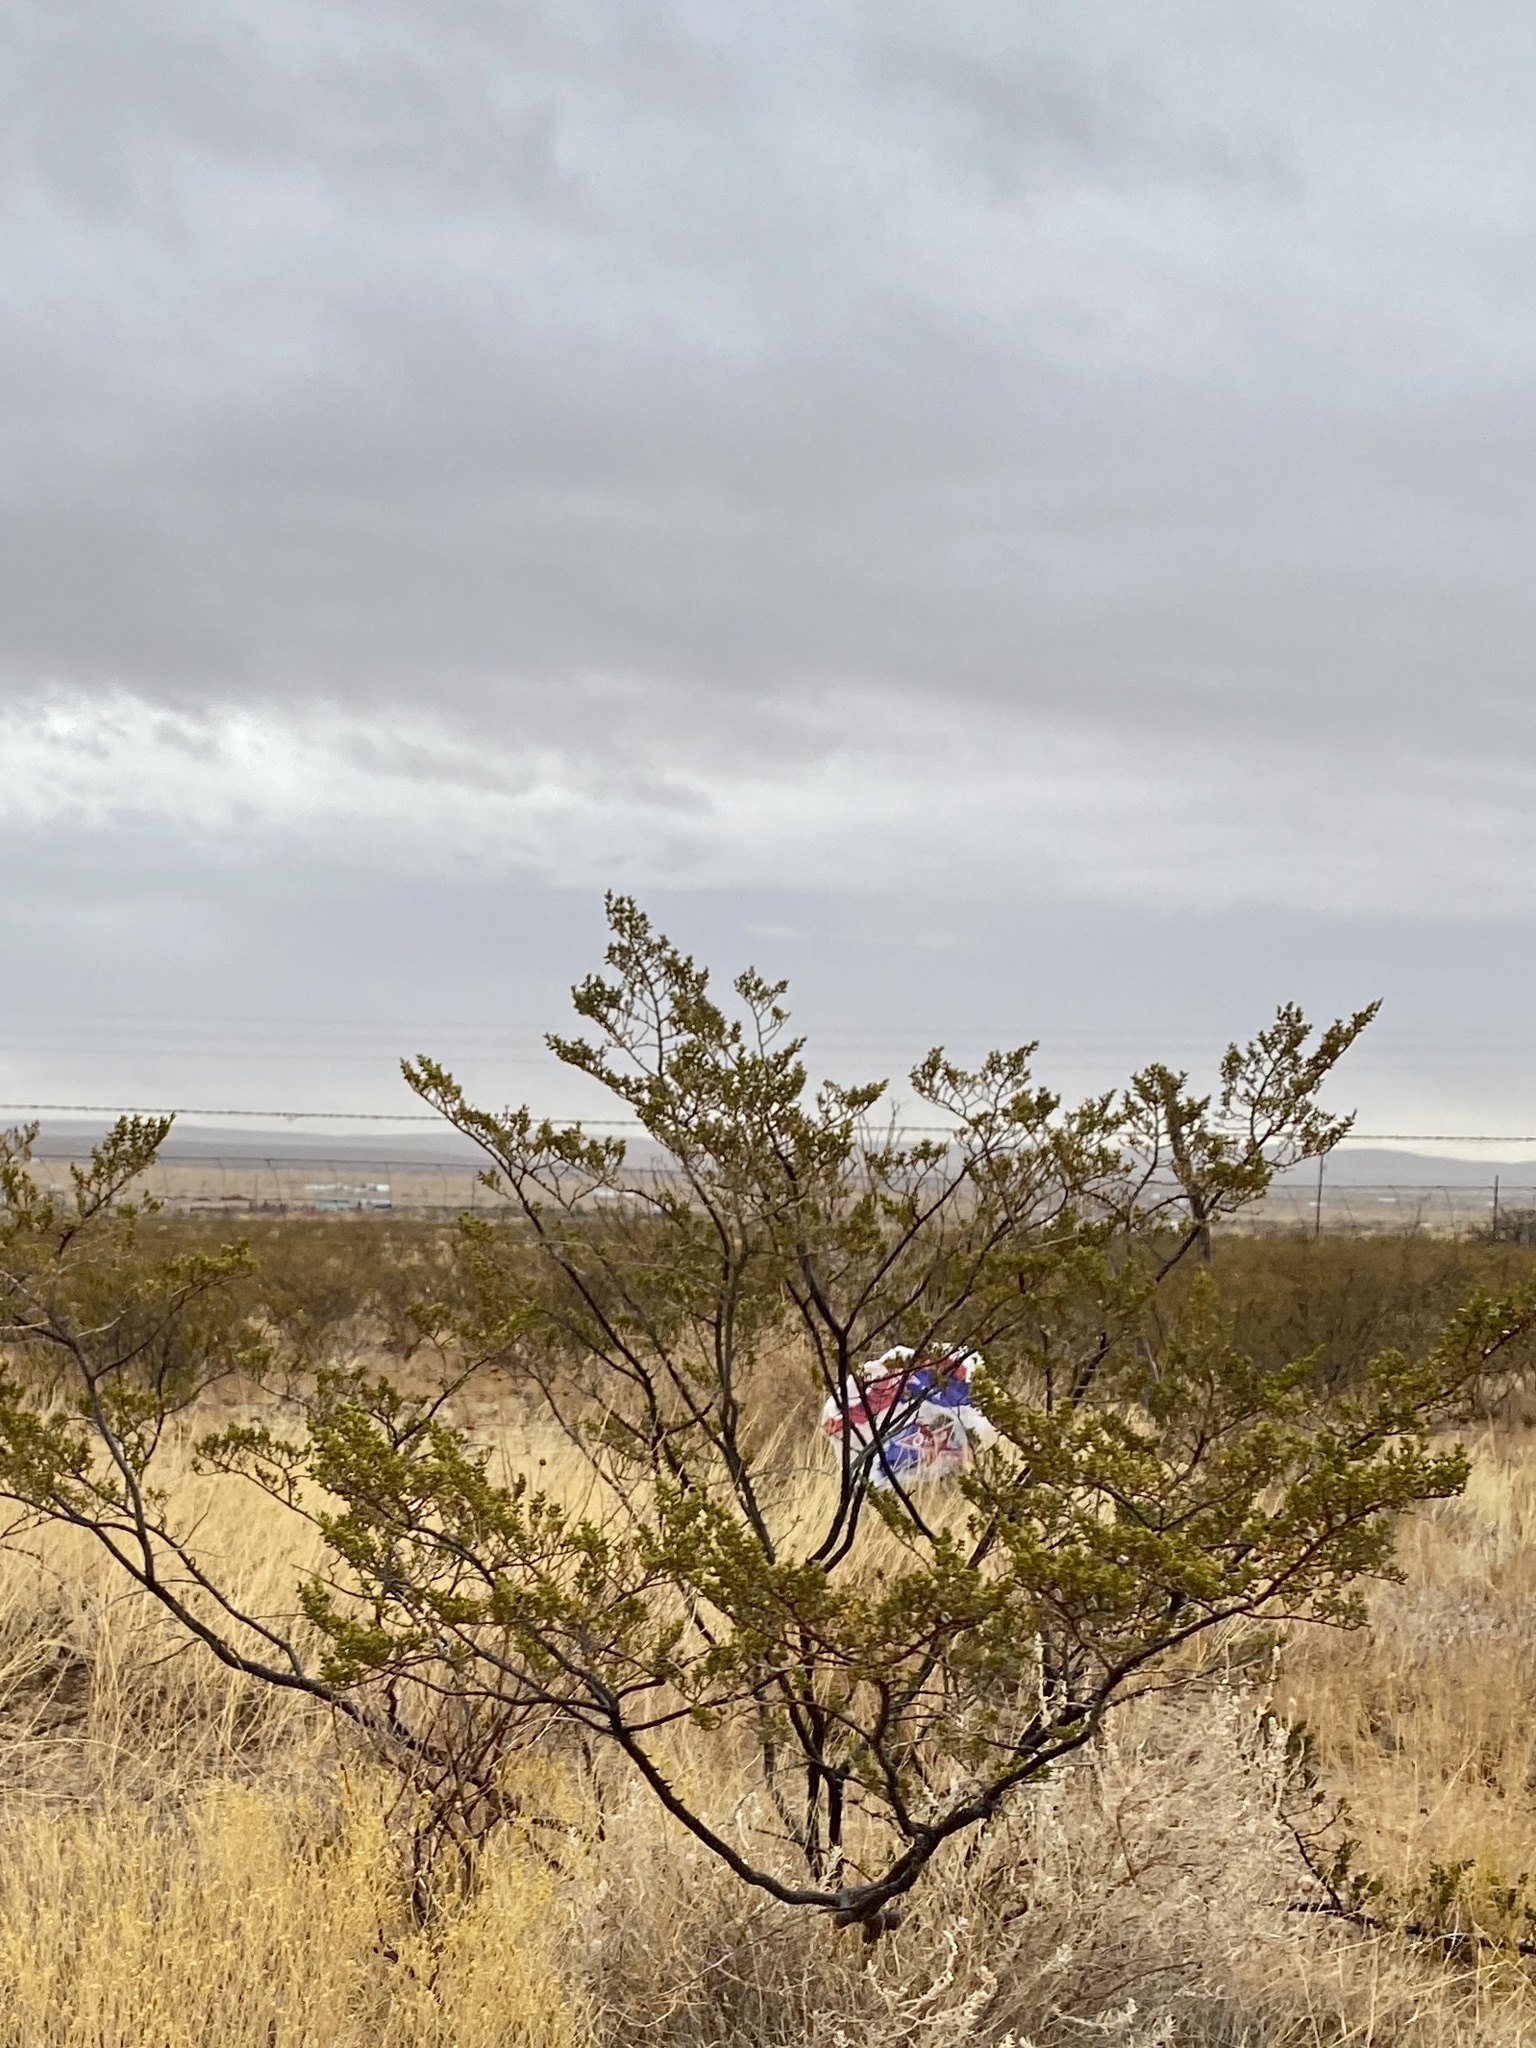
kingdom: Plantae
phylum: Tracheophyta
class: Magnoliopsida
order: Zygophyllales
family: Zygophyllaceae
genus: Larrea
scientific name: Larrea tridentata
